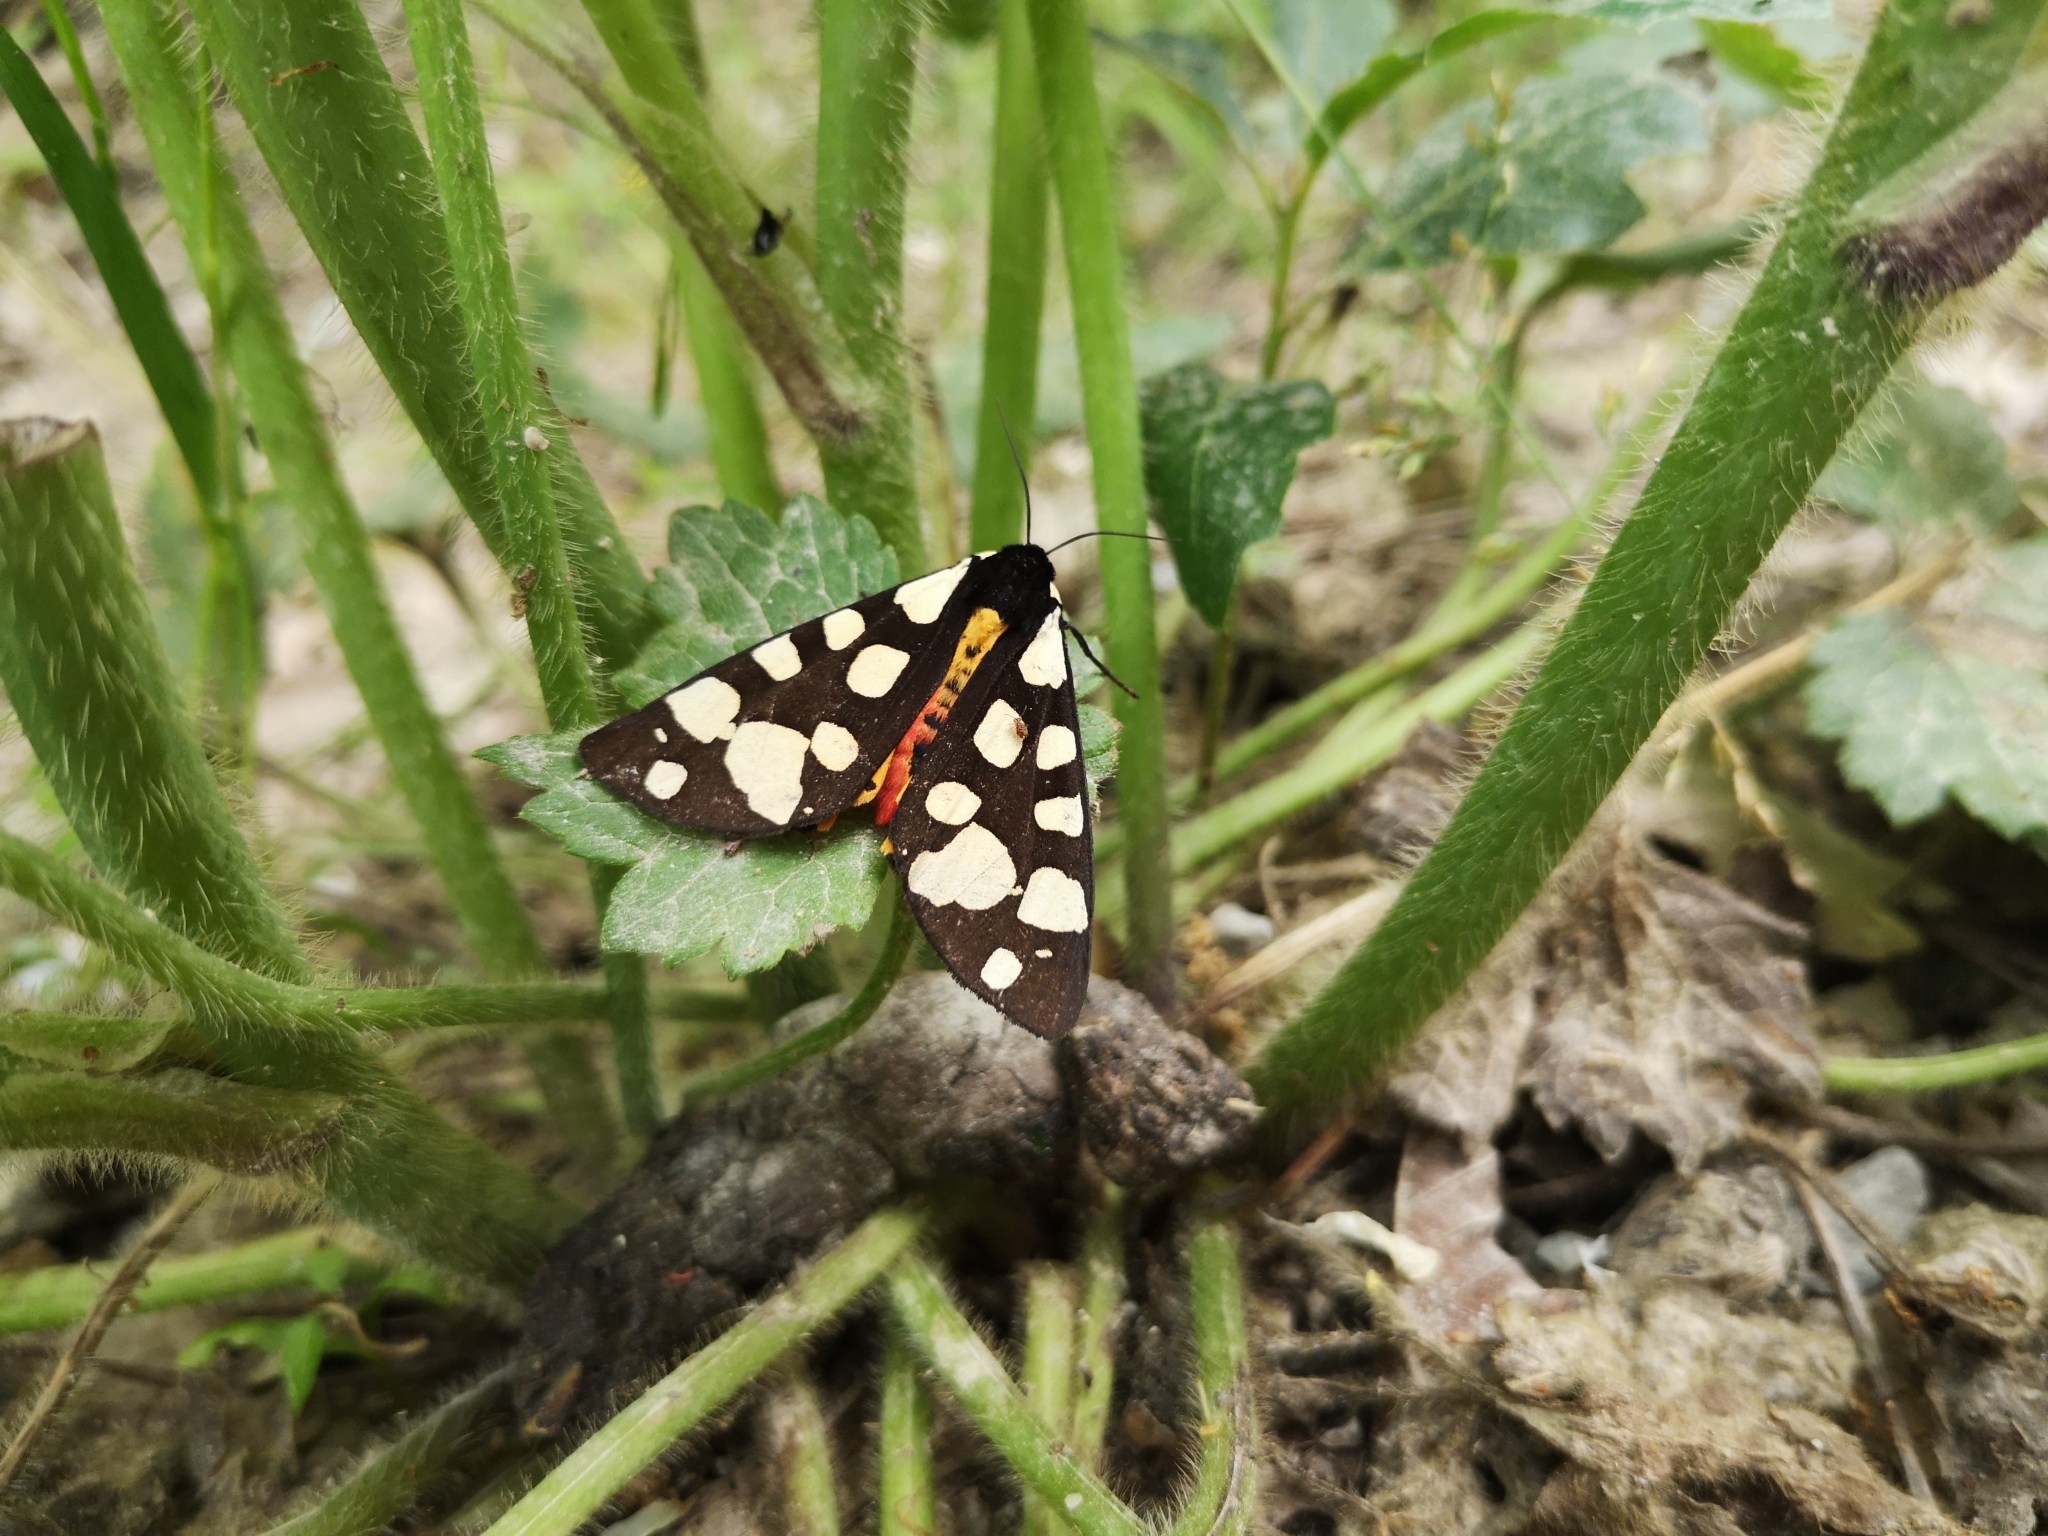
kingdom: Animalia
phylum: Arthropoda
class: Insecta
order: Lepidoptera
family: Erebidae
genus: Epicallia
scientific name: Epicallia villica
